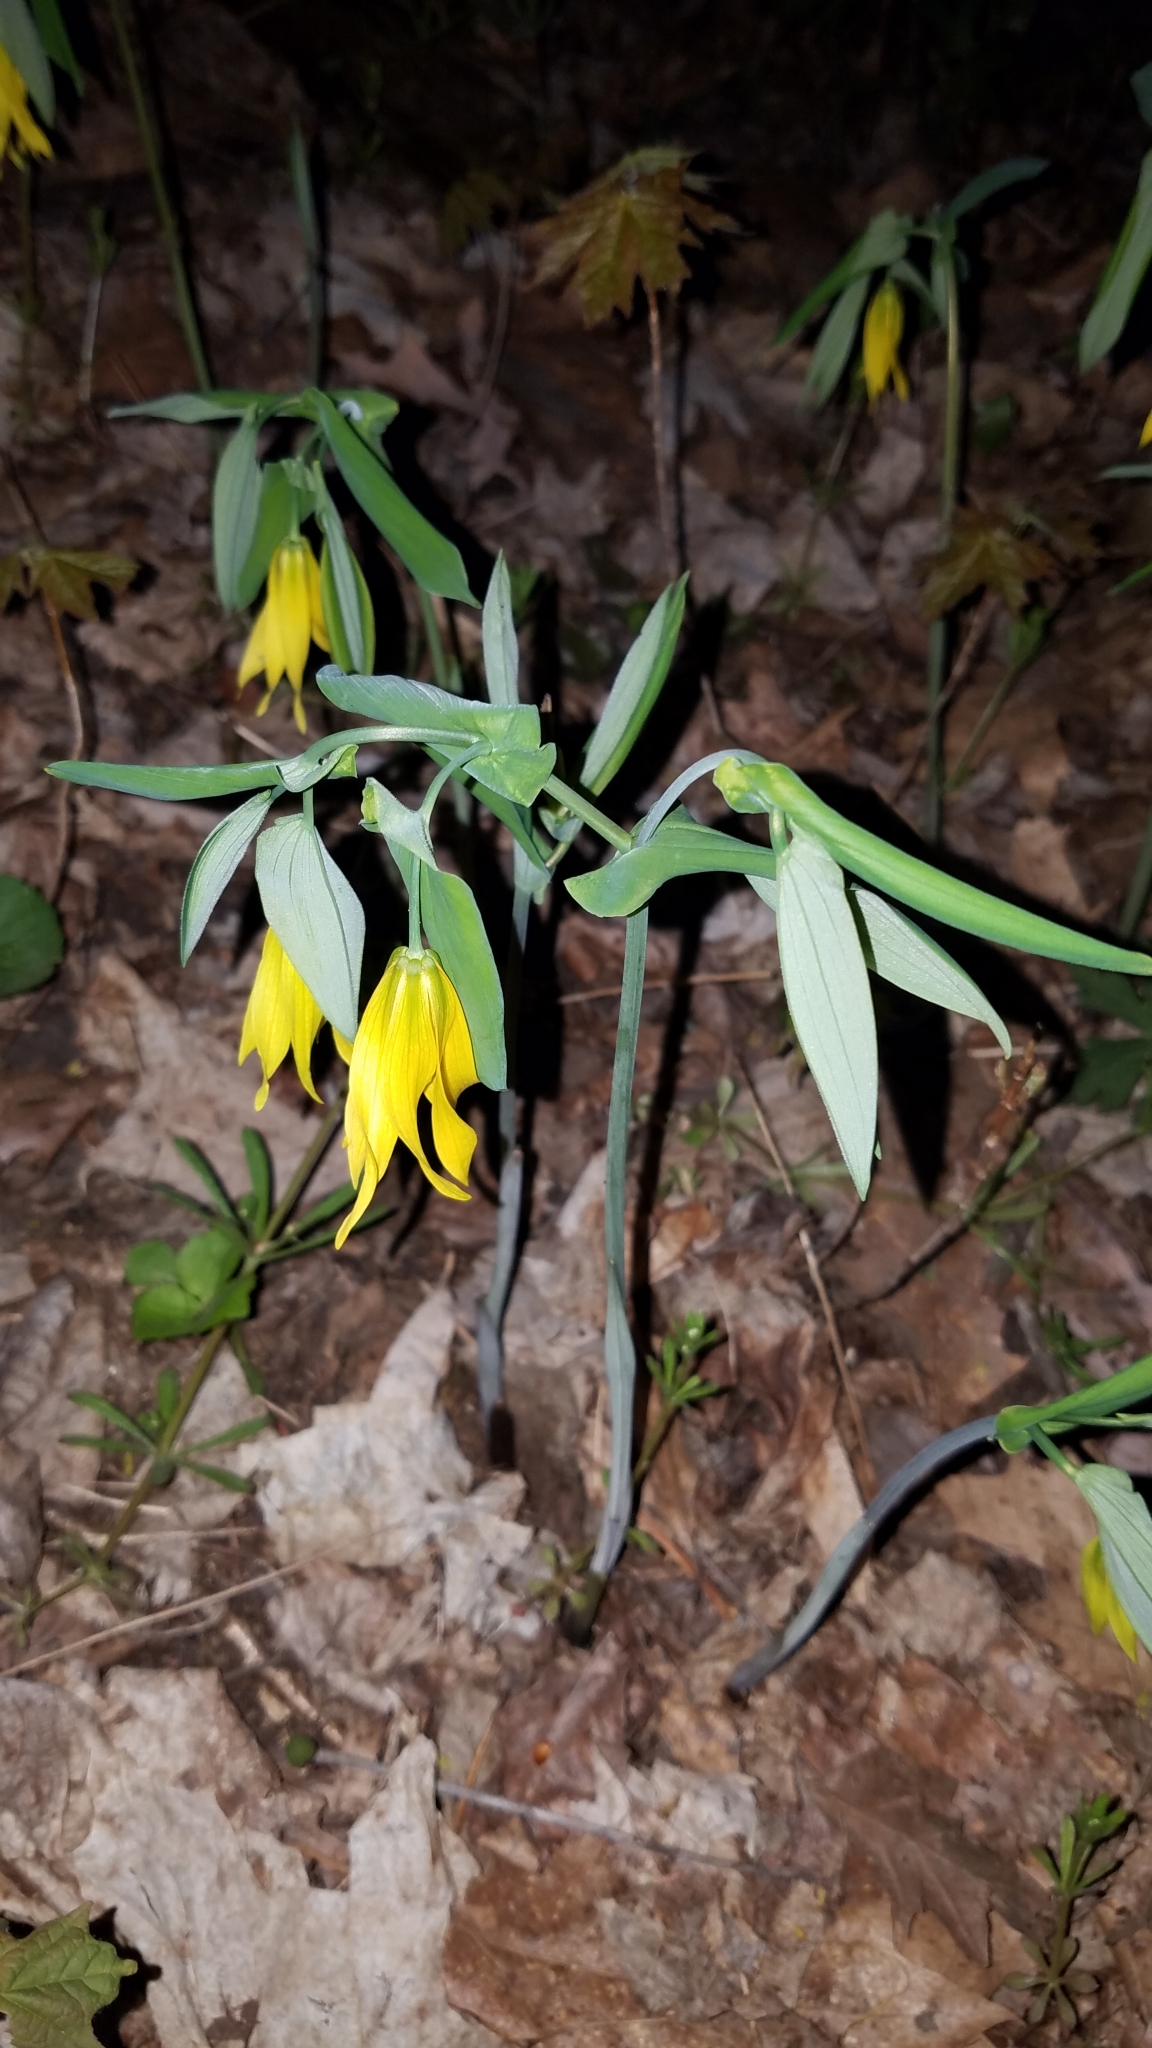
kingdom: Plantae
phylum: Tracheophyta
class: Liliopsida
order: Liliales
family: Colchicaceae
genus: Uvularia
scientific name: Uvularia grandiflora
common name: Bellwort
